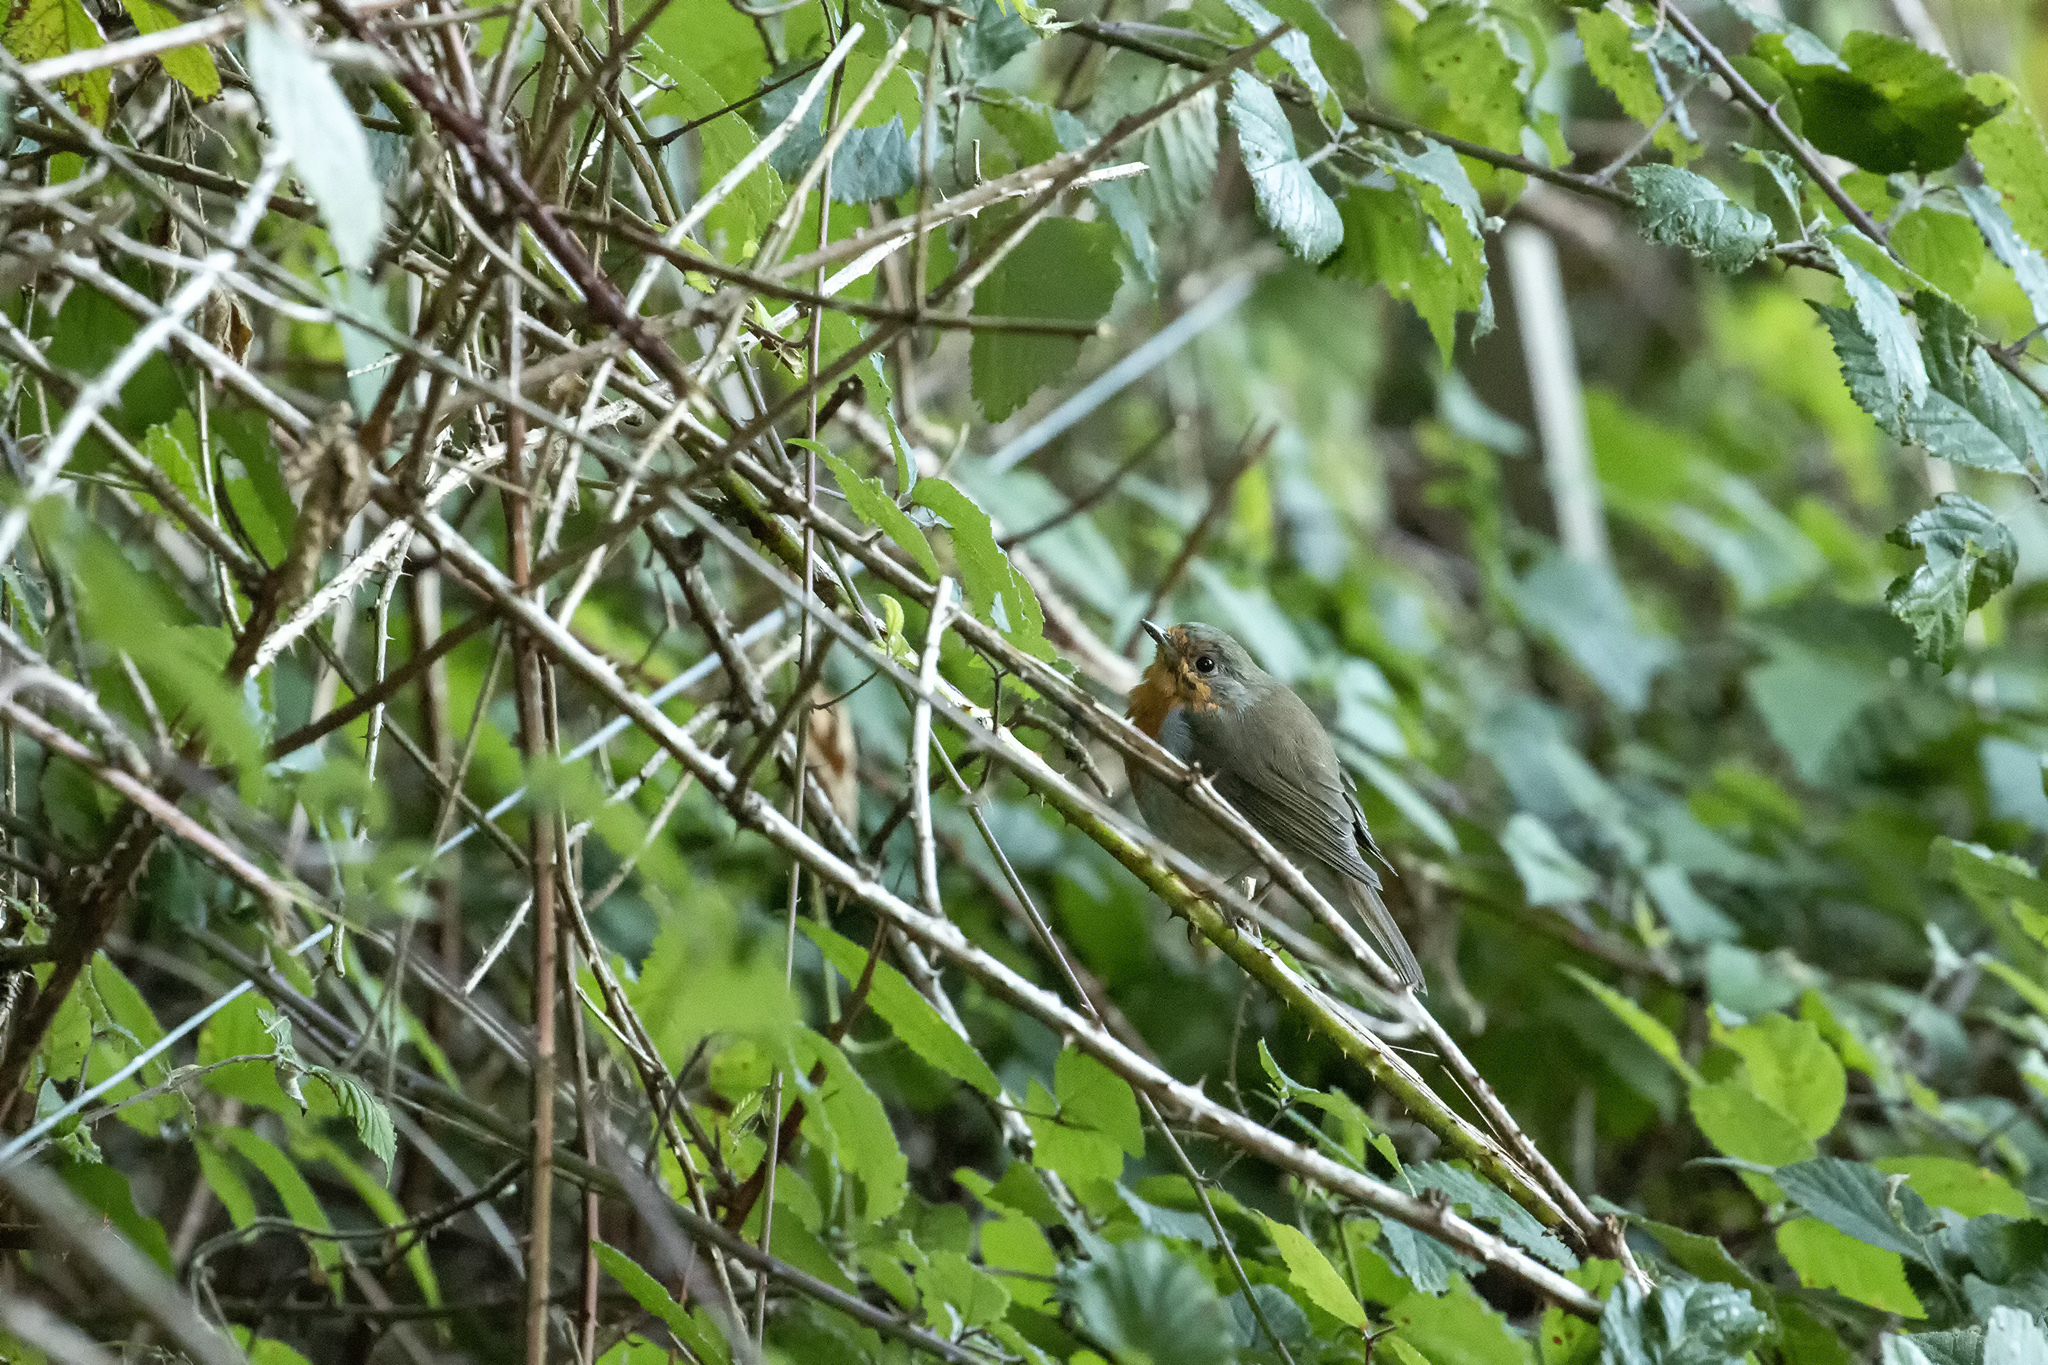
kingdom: Animalia
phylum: Chordata
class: Aves
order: Passeriformes
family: Muscicapidae
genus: Erithacus
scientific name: Erithacus rubecula
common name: European robin
